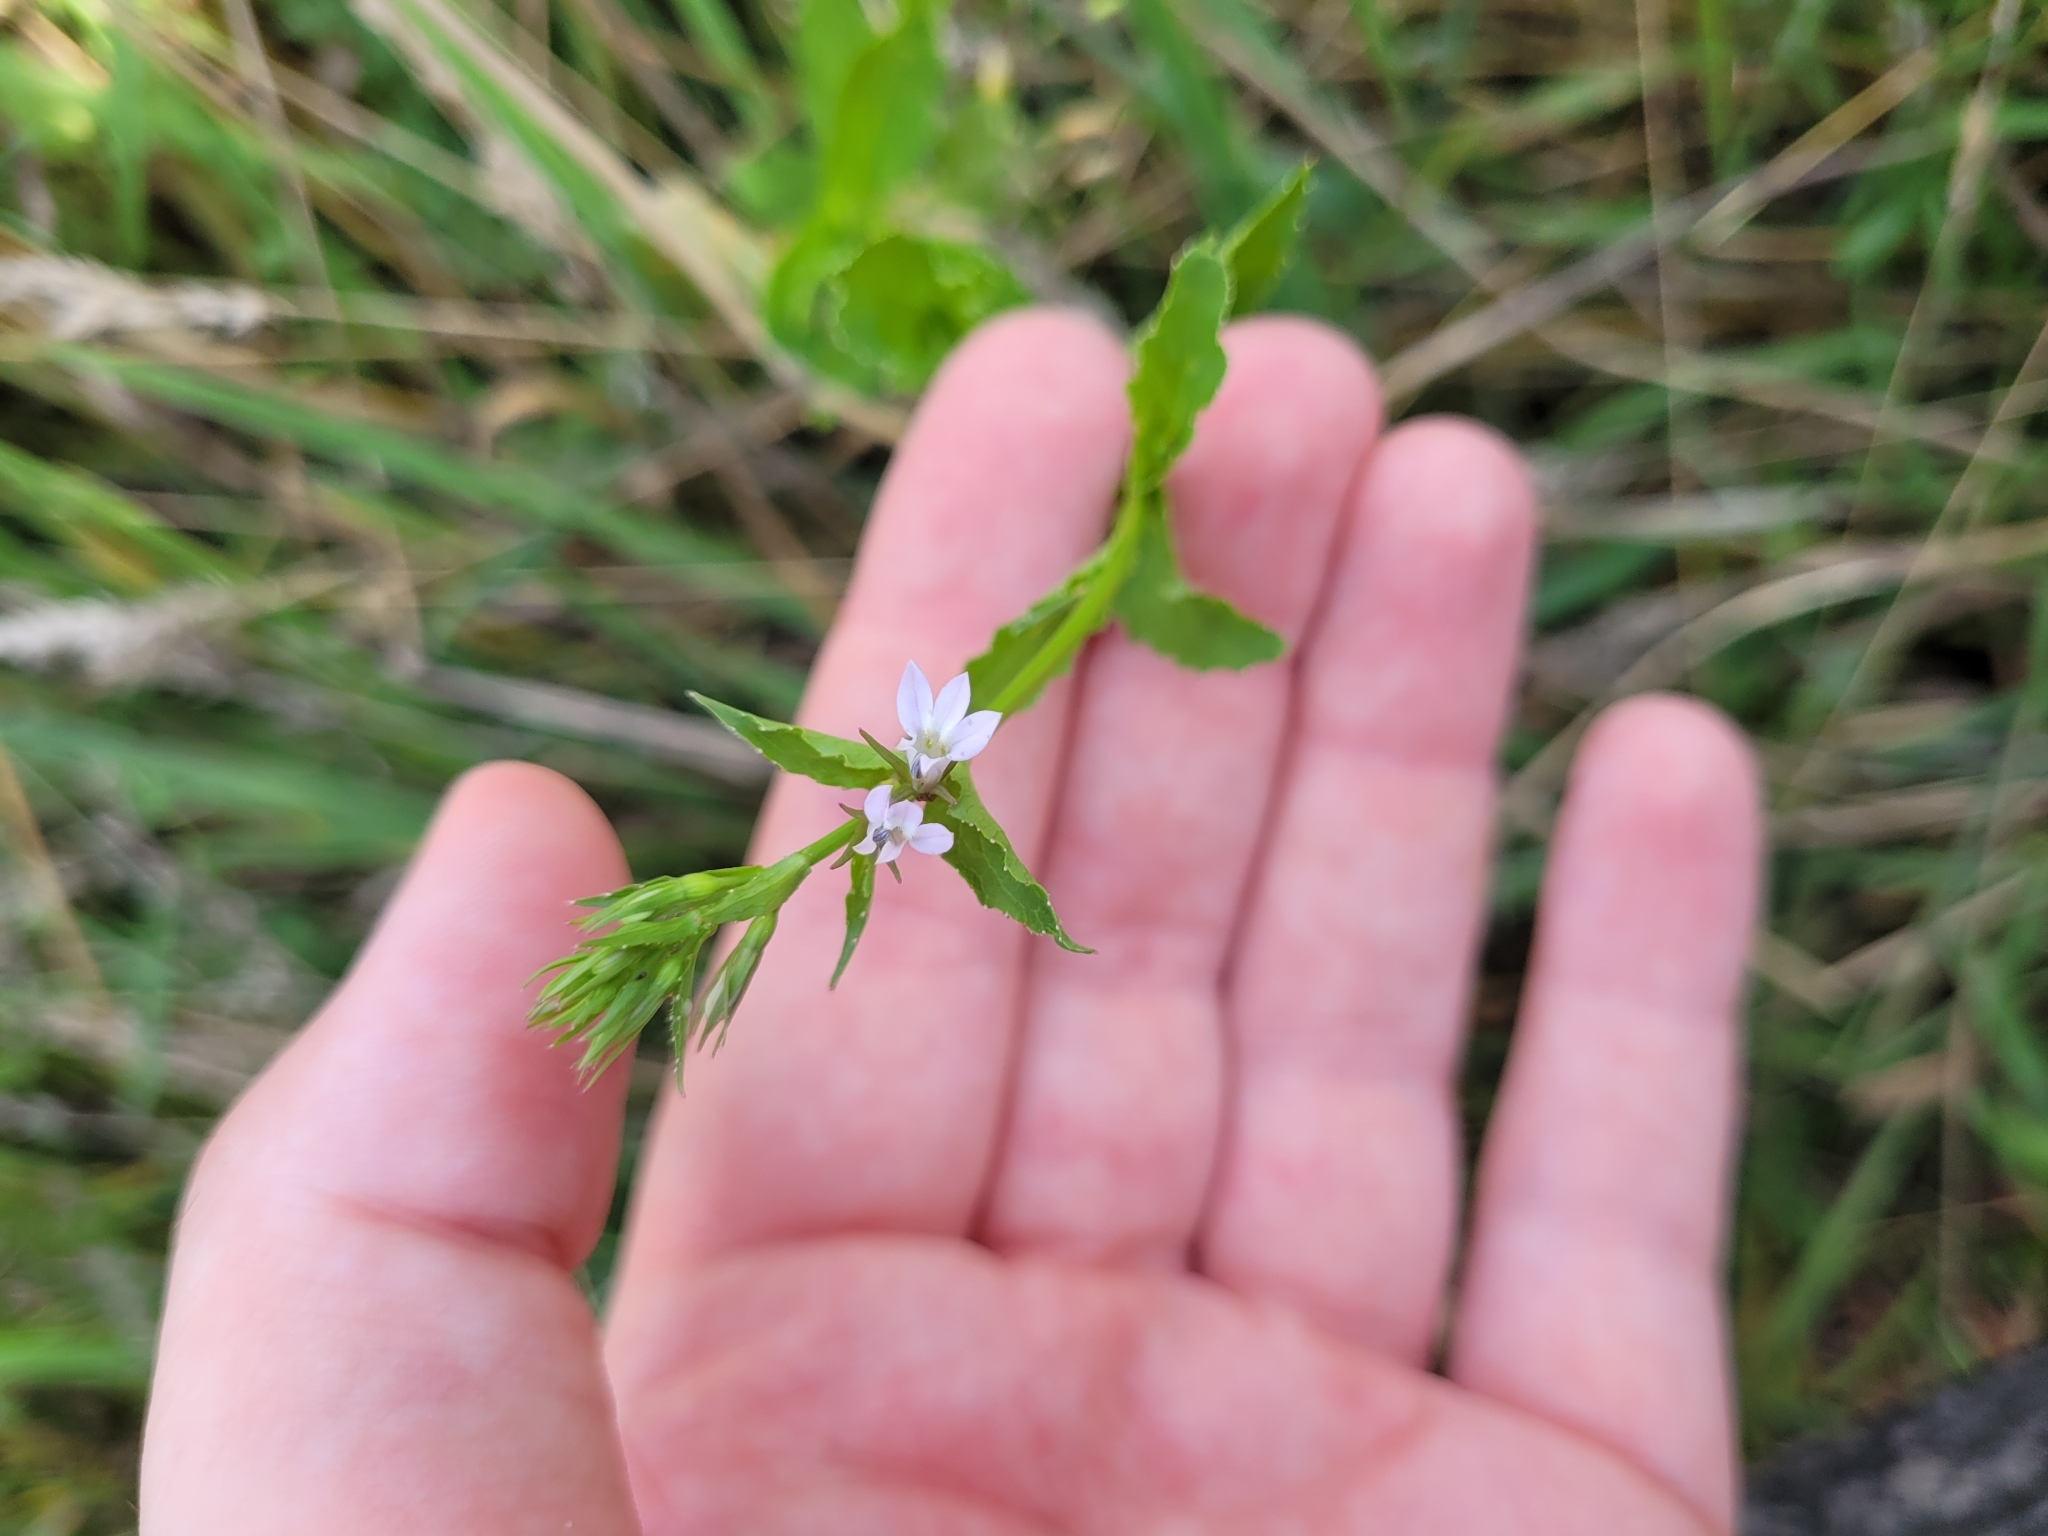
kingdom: Plantae
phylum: Tracheophyta
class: Magnoliopsida
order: Asterales
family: Campanulaceae
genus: Lobelia
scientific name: Lobelia inflata
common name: Indian tobacco
